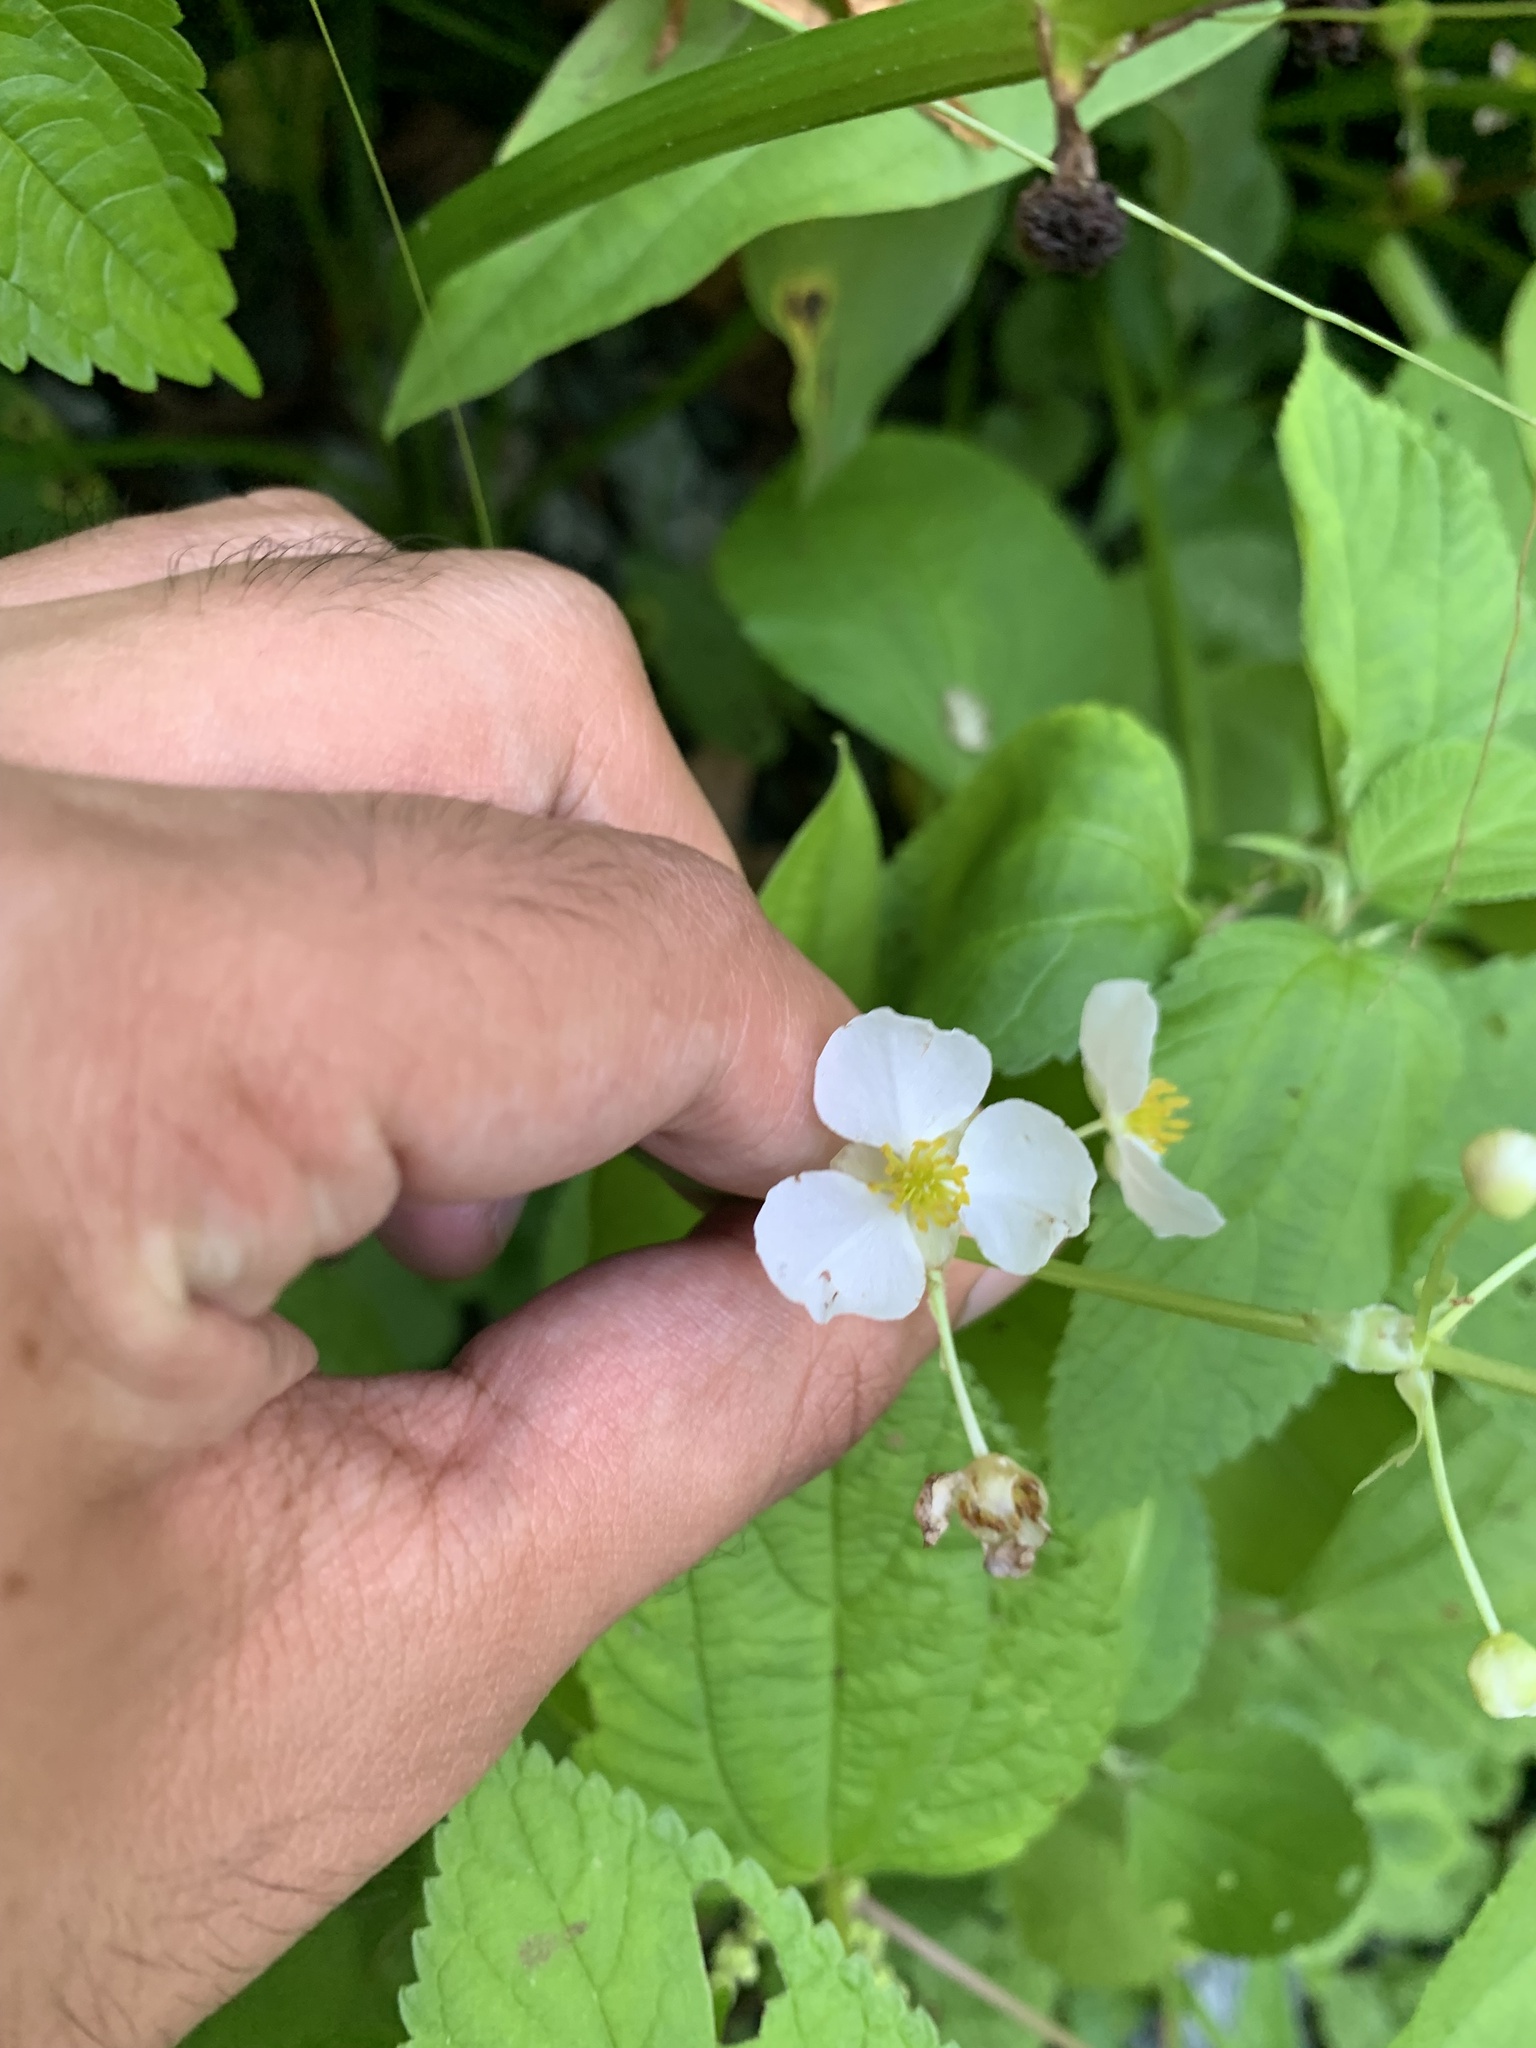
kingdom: Plantae
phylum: Tracheophyta
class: Liliopsida
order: Alismatales
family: Alismataceae
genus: Sagittaria
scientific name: Sagittaria australis
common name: Appalachian arrowhead
